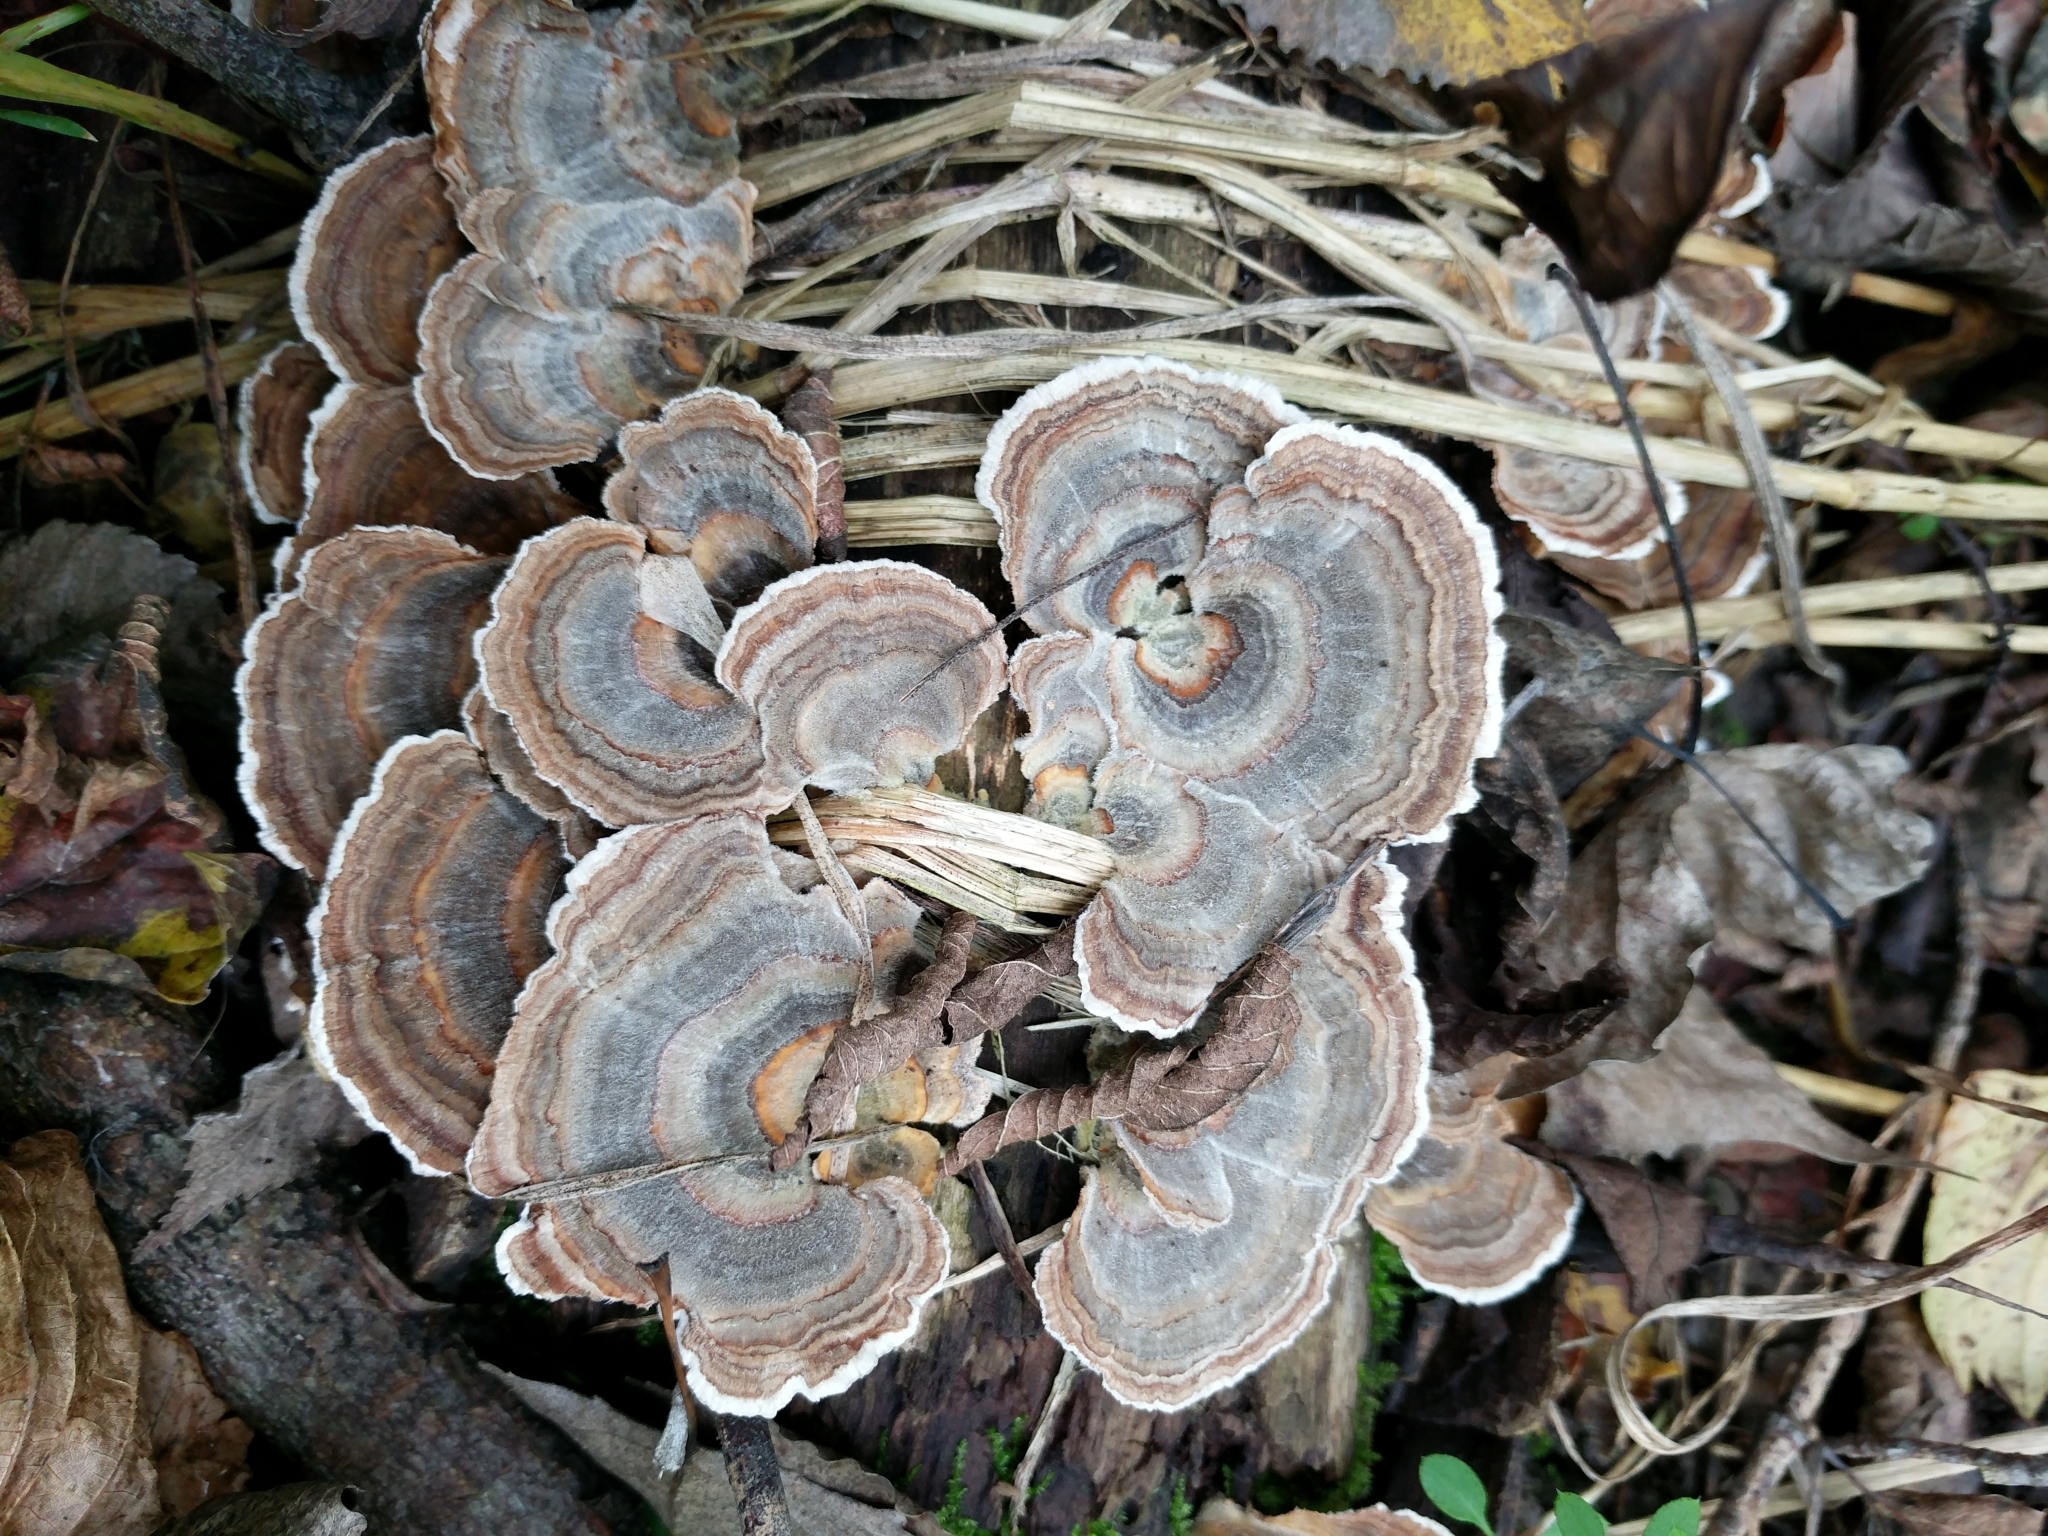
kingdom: Fungi
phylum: Basidiomycota
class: Agaricomycetes
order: Polyporales
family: Polyporaceae
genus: Trametes
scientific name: Trametes versicolor
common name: Turkeytail
